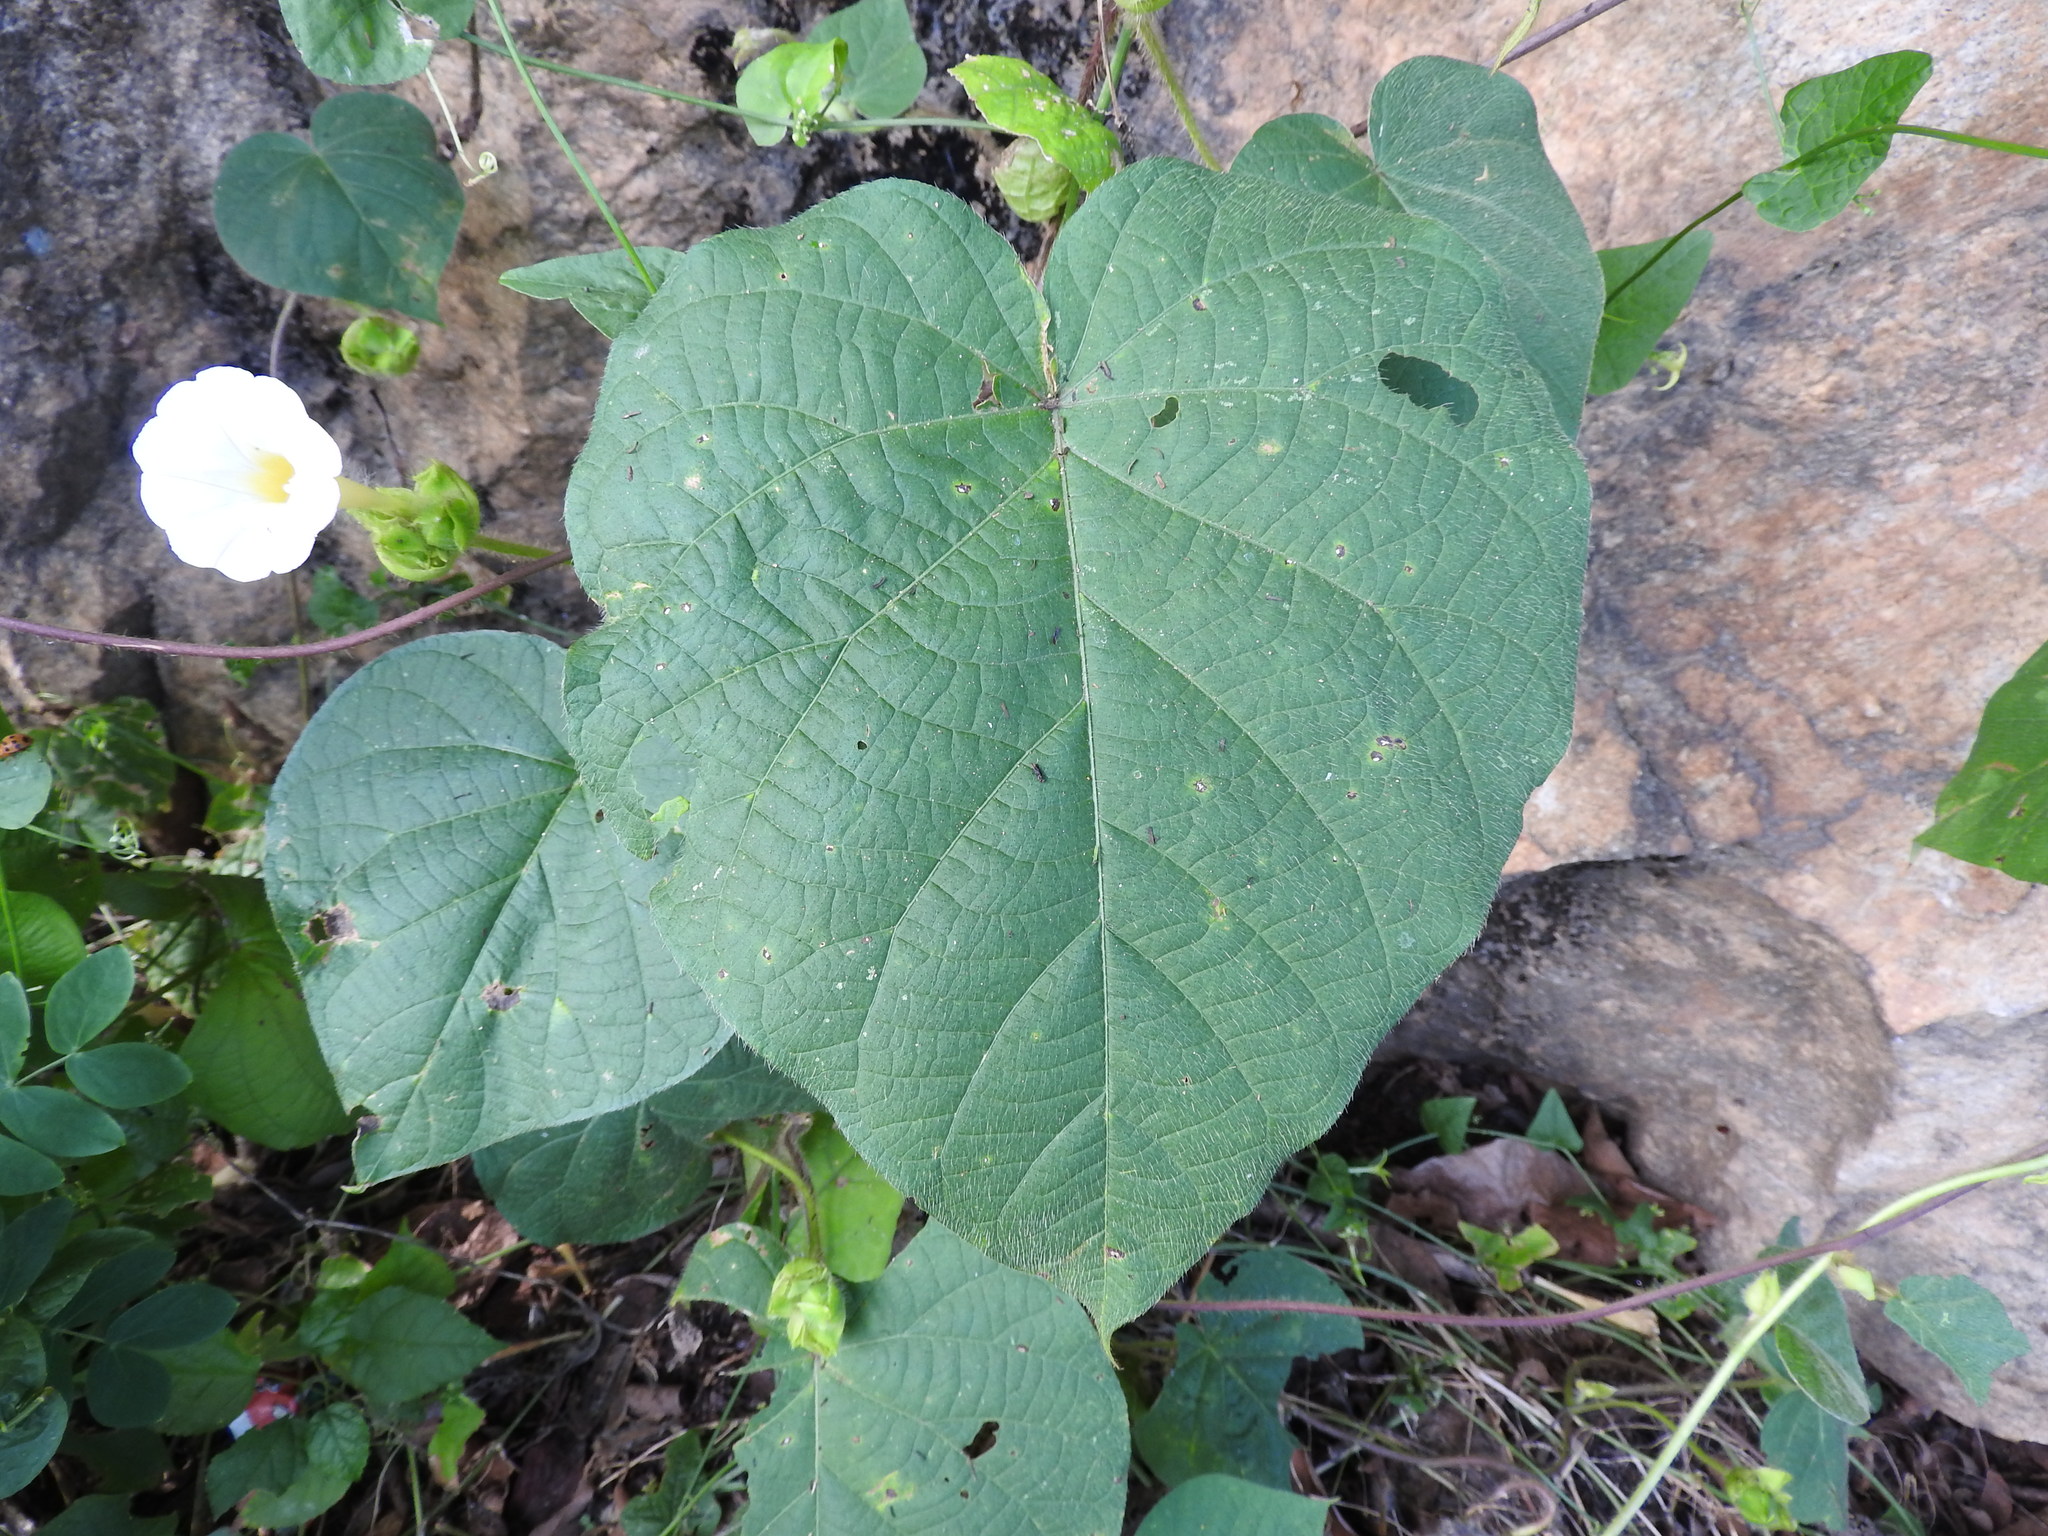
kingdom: Plantae
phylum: Tracheophyta
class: Magnoliopsida
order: Solanales
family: Convolvulaceae
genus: Ipomoea
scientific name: Ipomoea neurocephala
